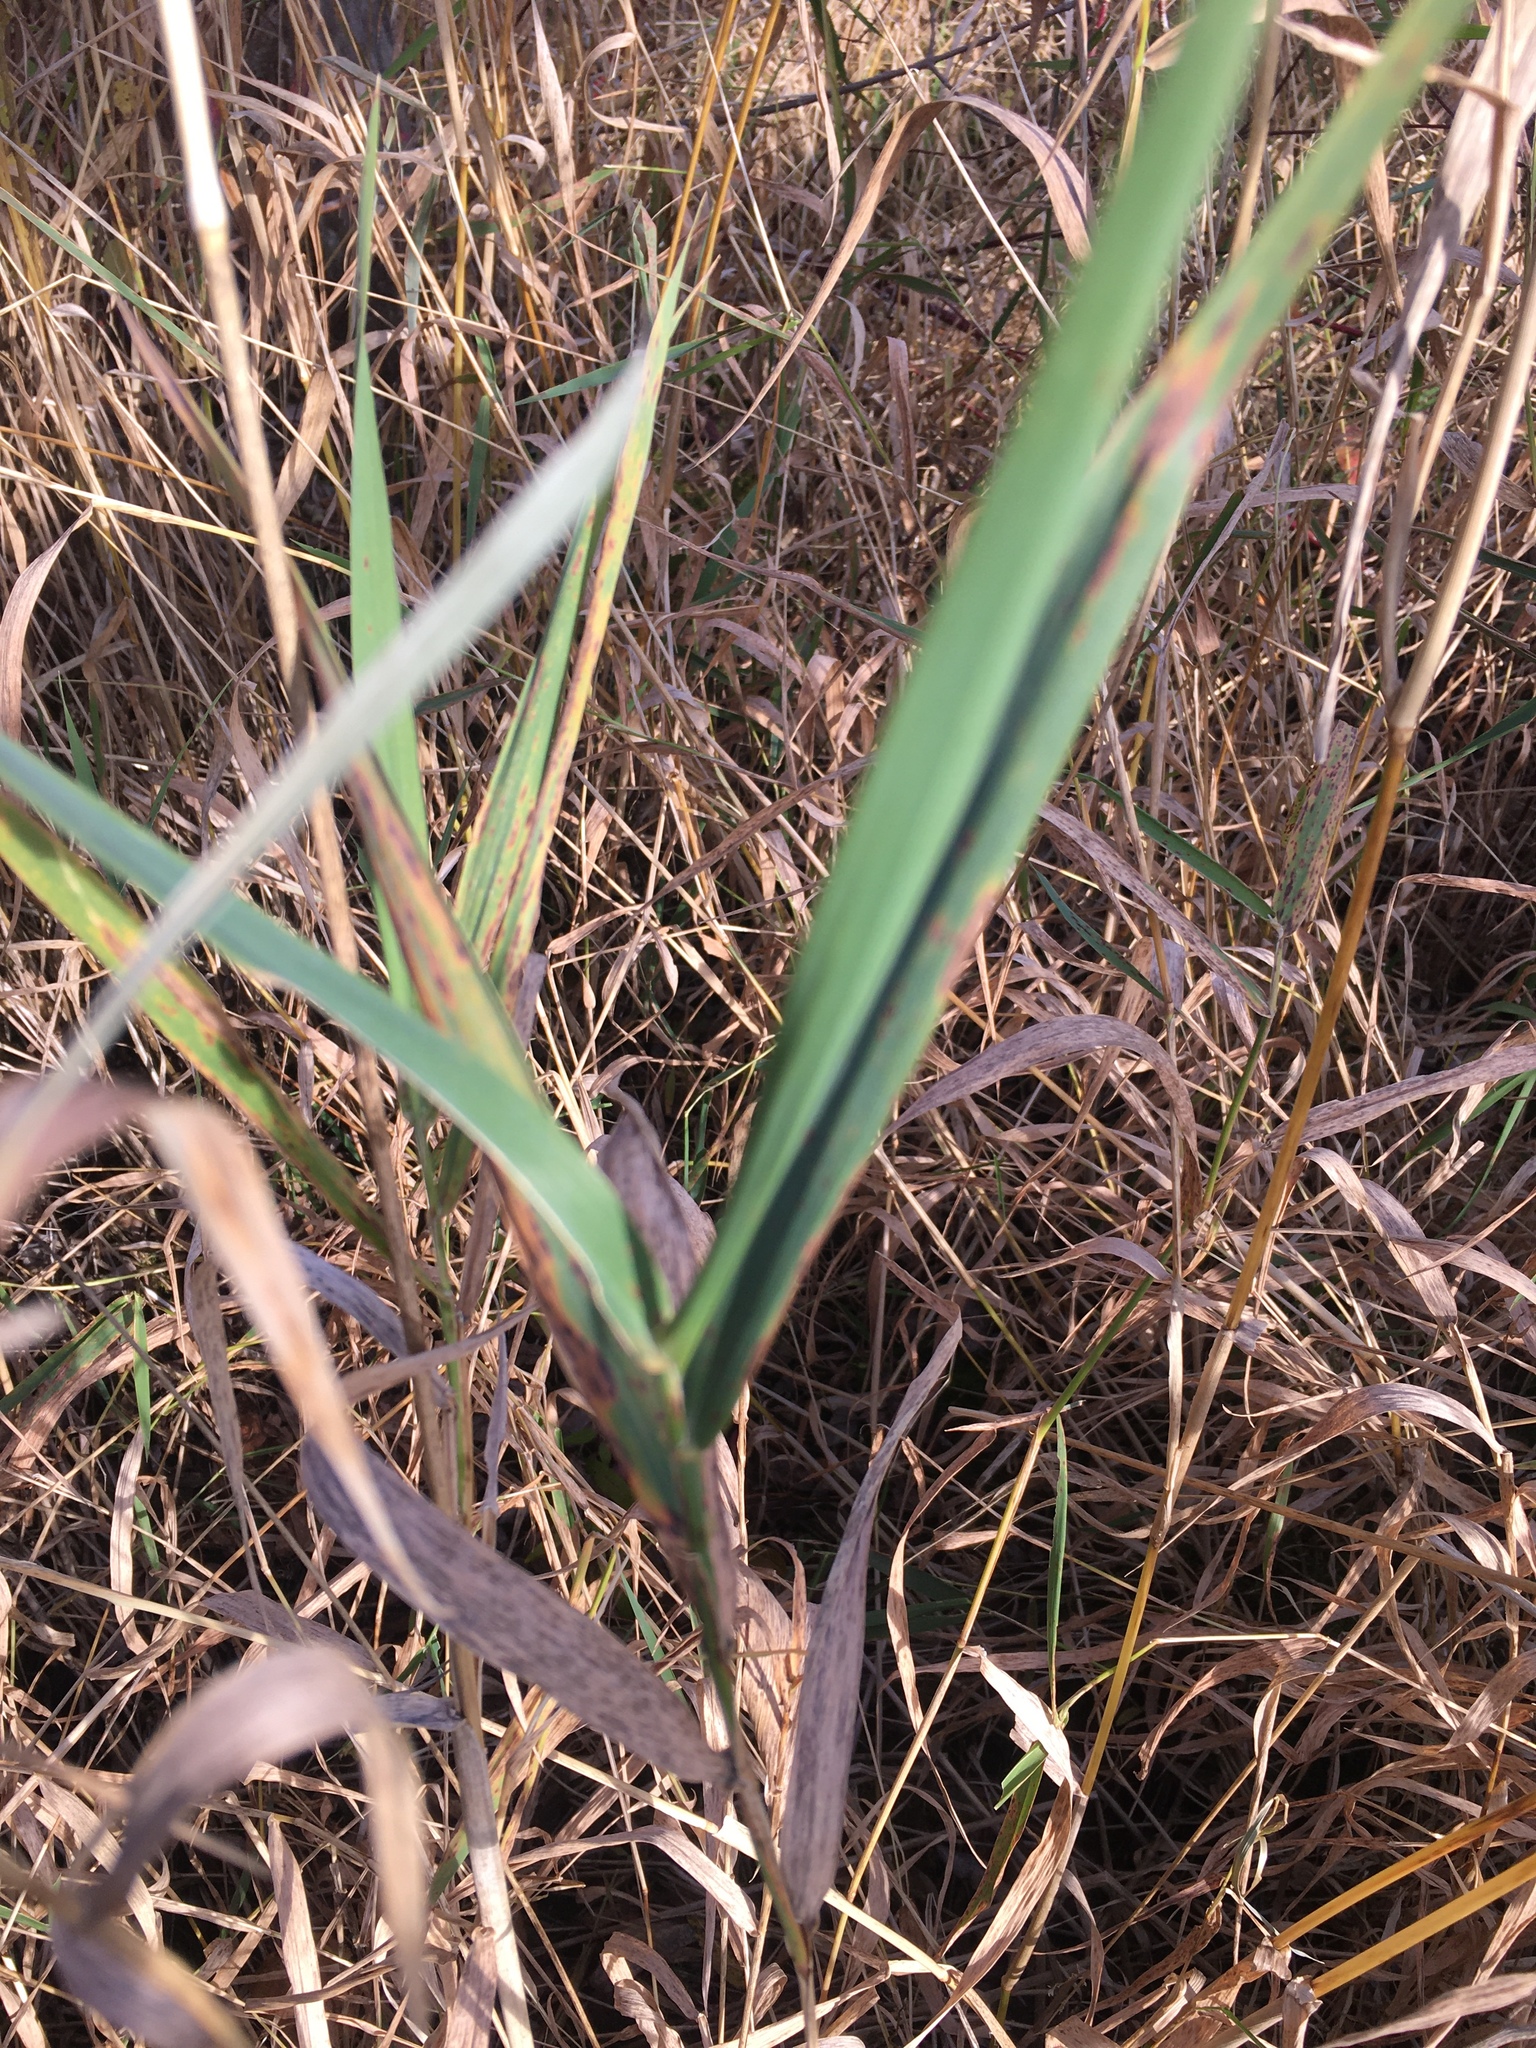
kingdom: Plantae
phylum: Tracheophyta
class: Liliopsida
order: Poales
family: Poaceae
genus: Phalaris
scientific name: Phalaris arundinacea
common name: Reed canary-grass
